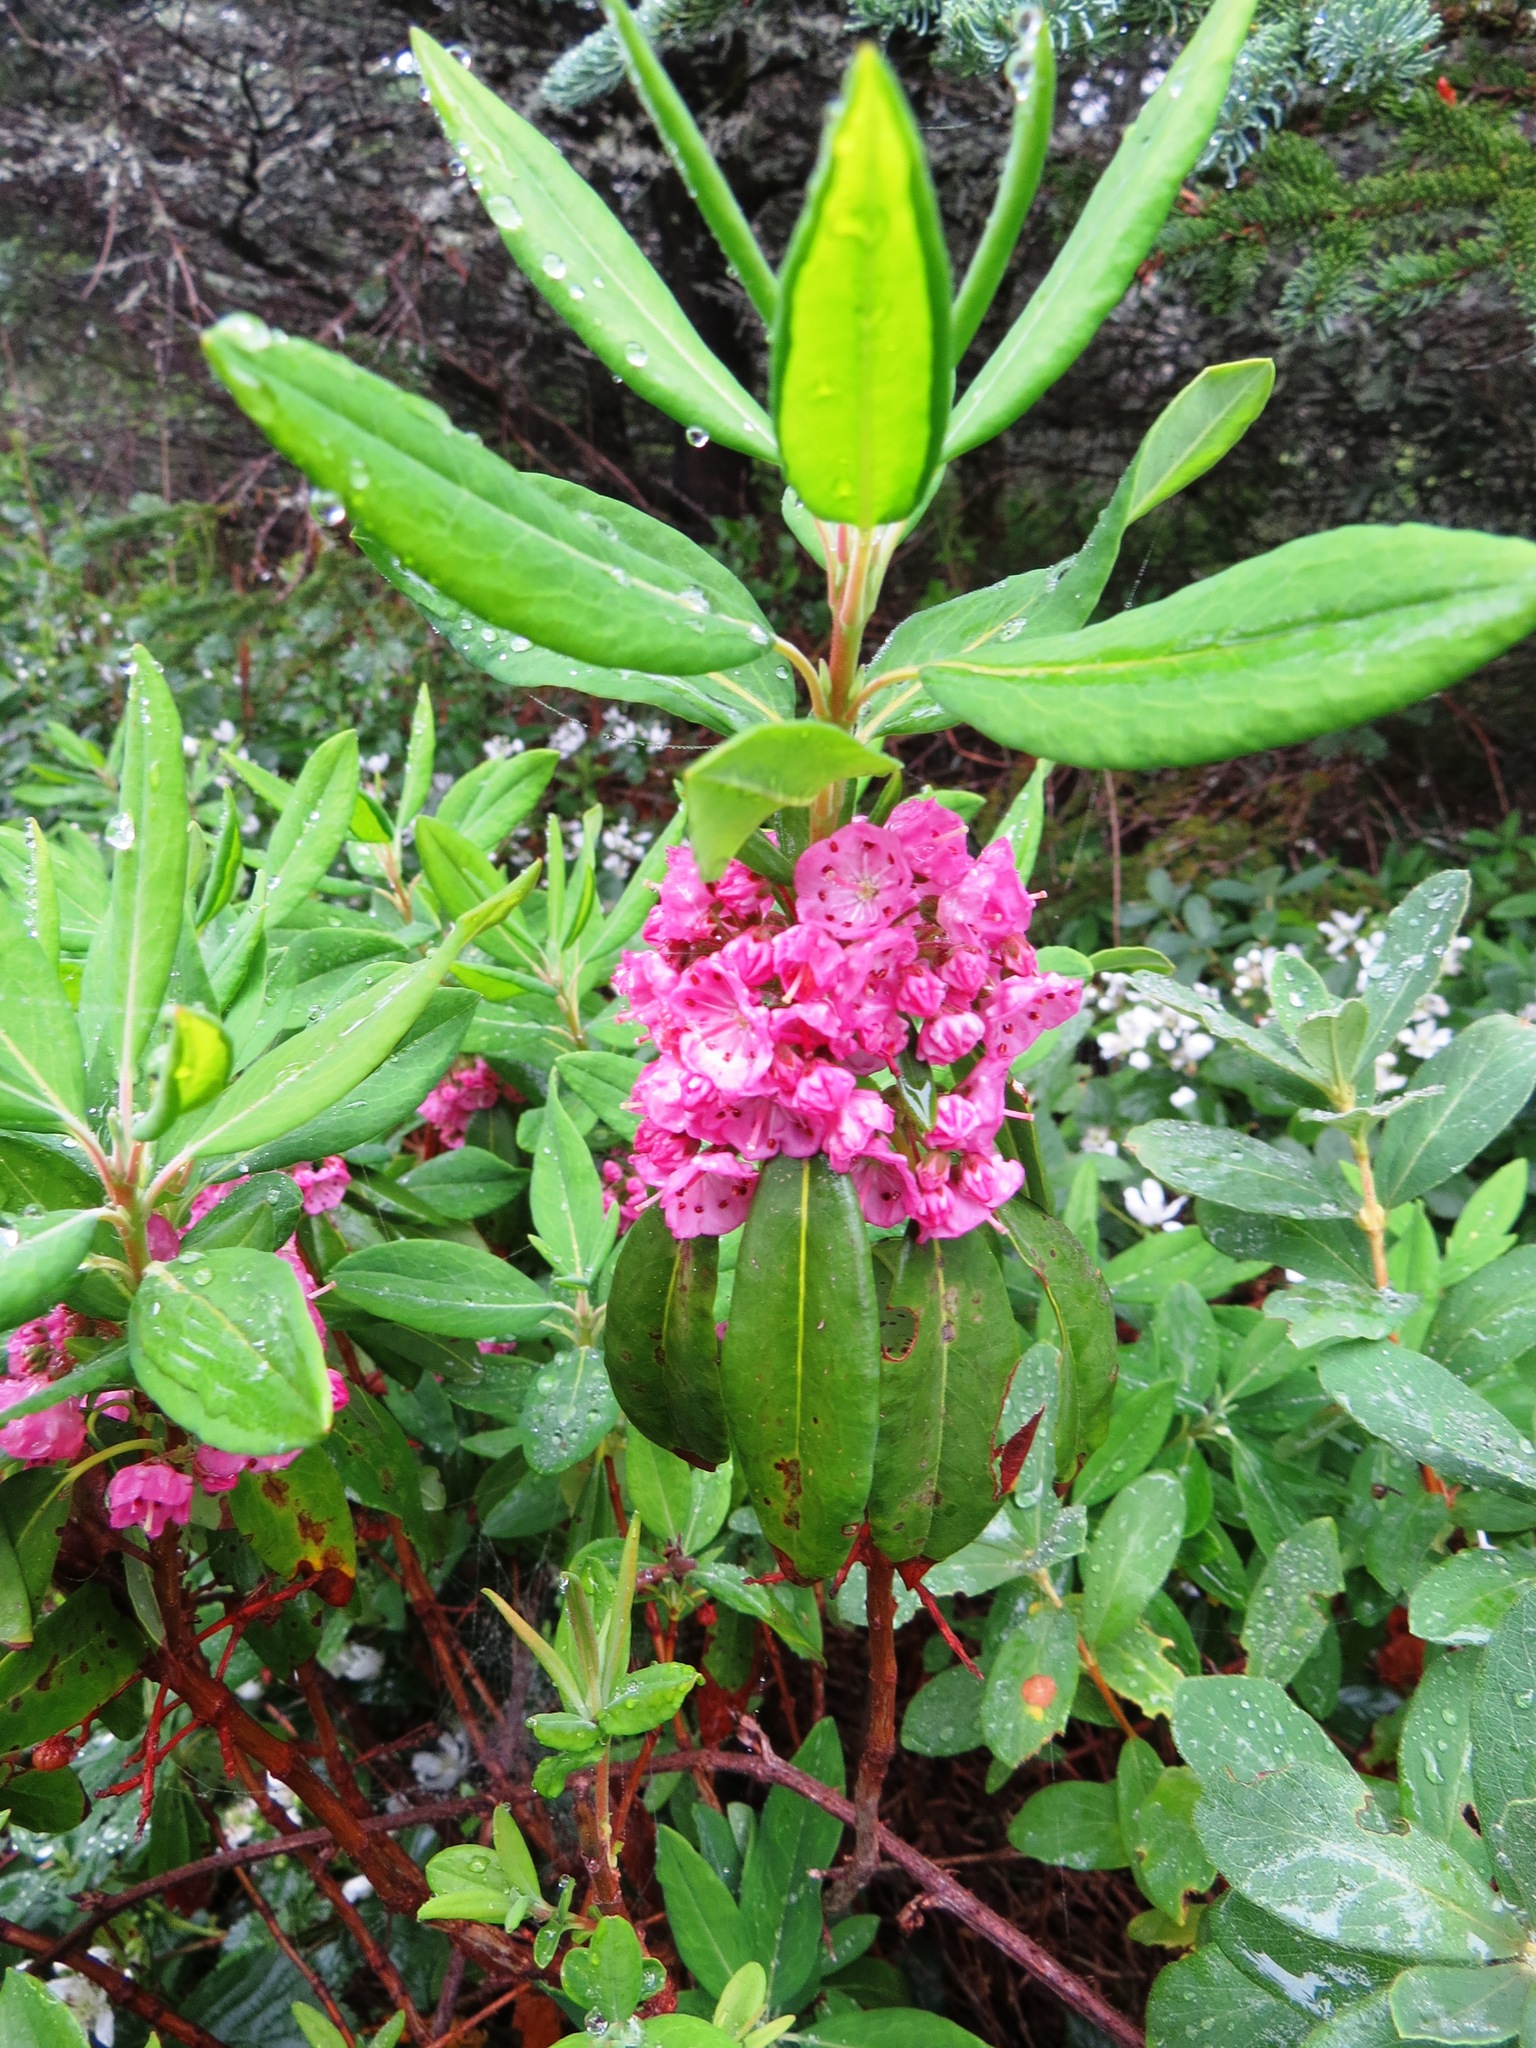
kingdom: Plantae
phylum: Tracheophyta
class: Magnoliopsida
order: Ericales
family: Ericaceae
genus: Kalmia
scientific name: Kalmia angustifolia
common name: Sheep-laurel
